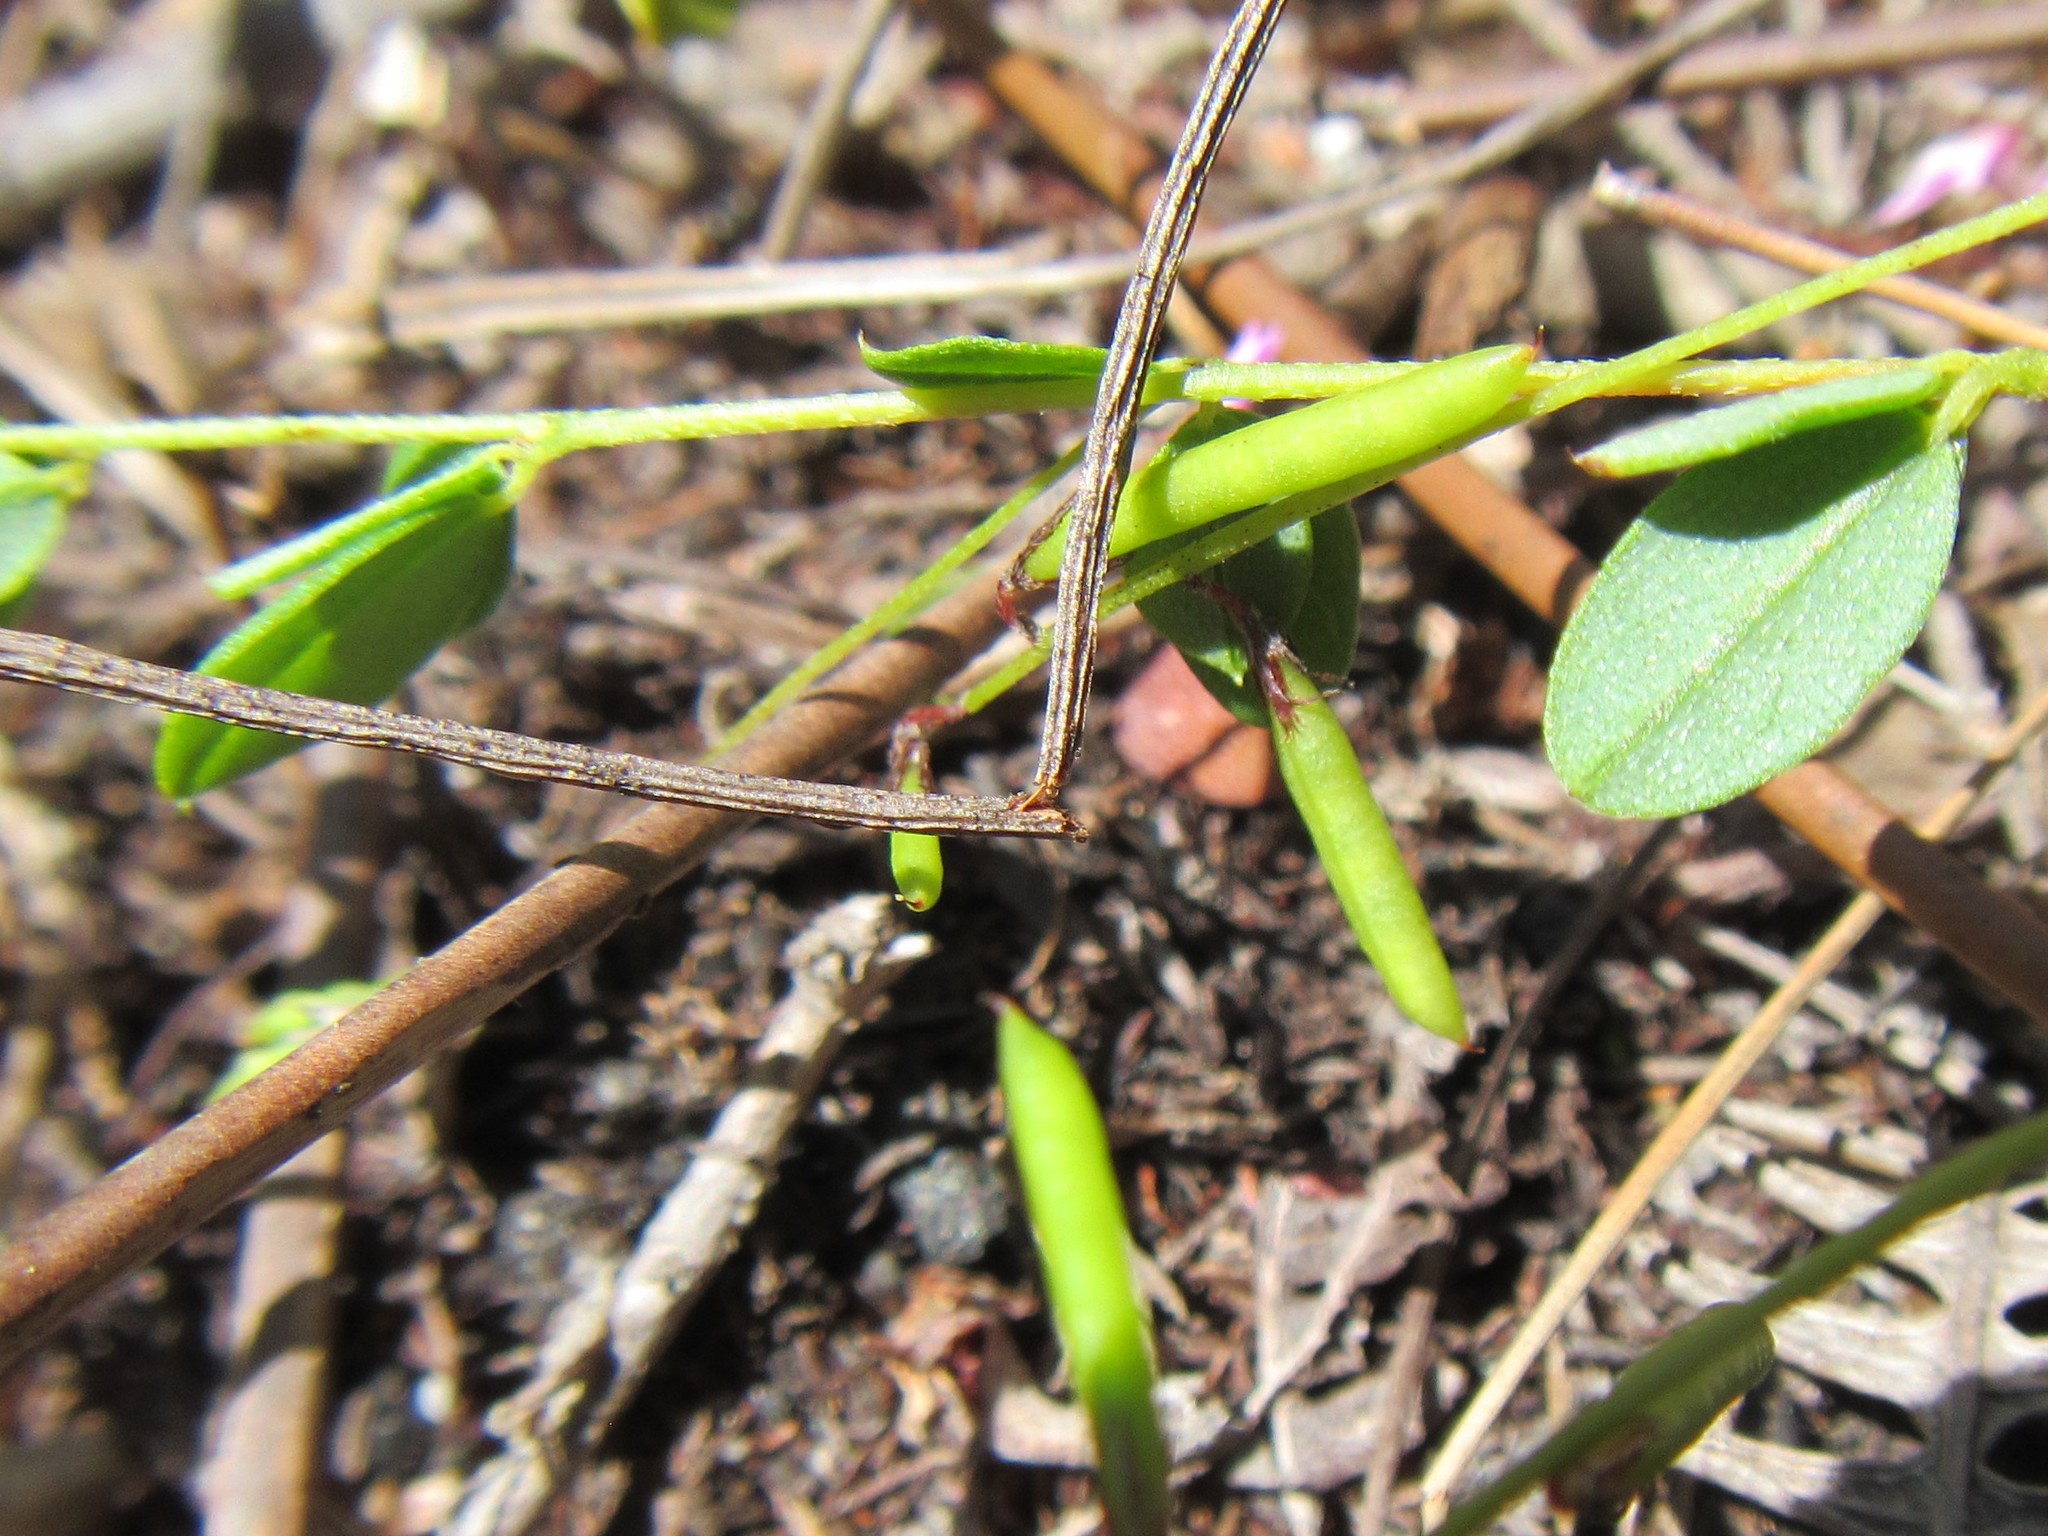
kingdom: Plantae
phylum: Tracheophyta
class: Magnoliopsida
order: Fabales
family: Fabaceae
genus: Indigofera
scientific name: Indigofera sarmentosa
